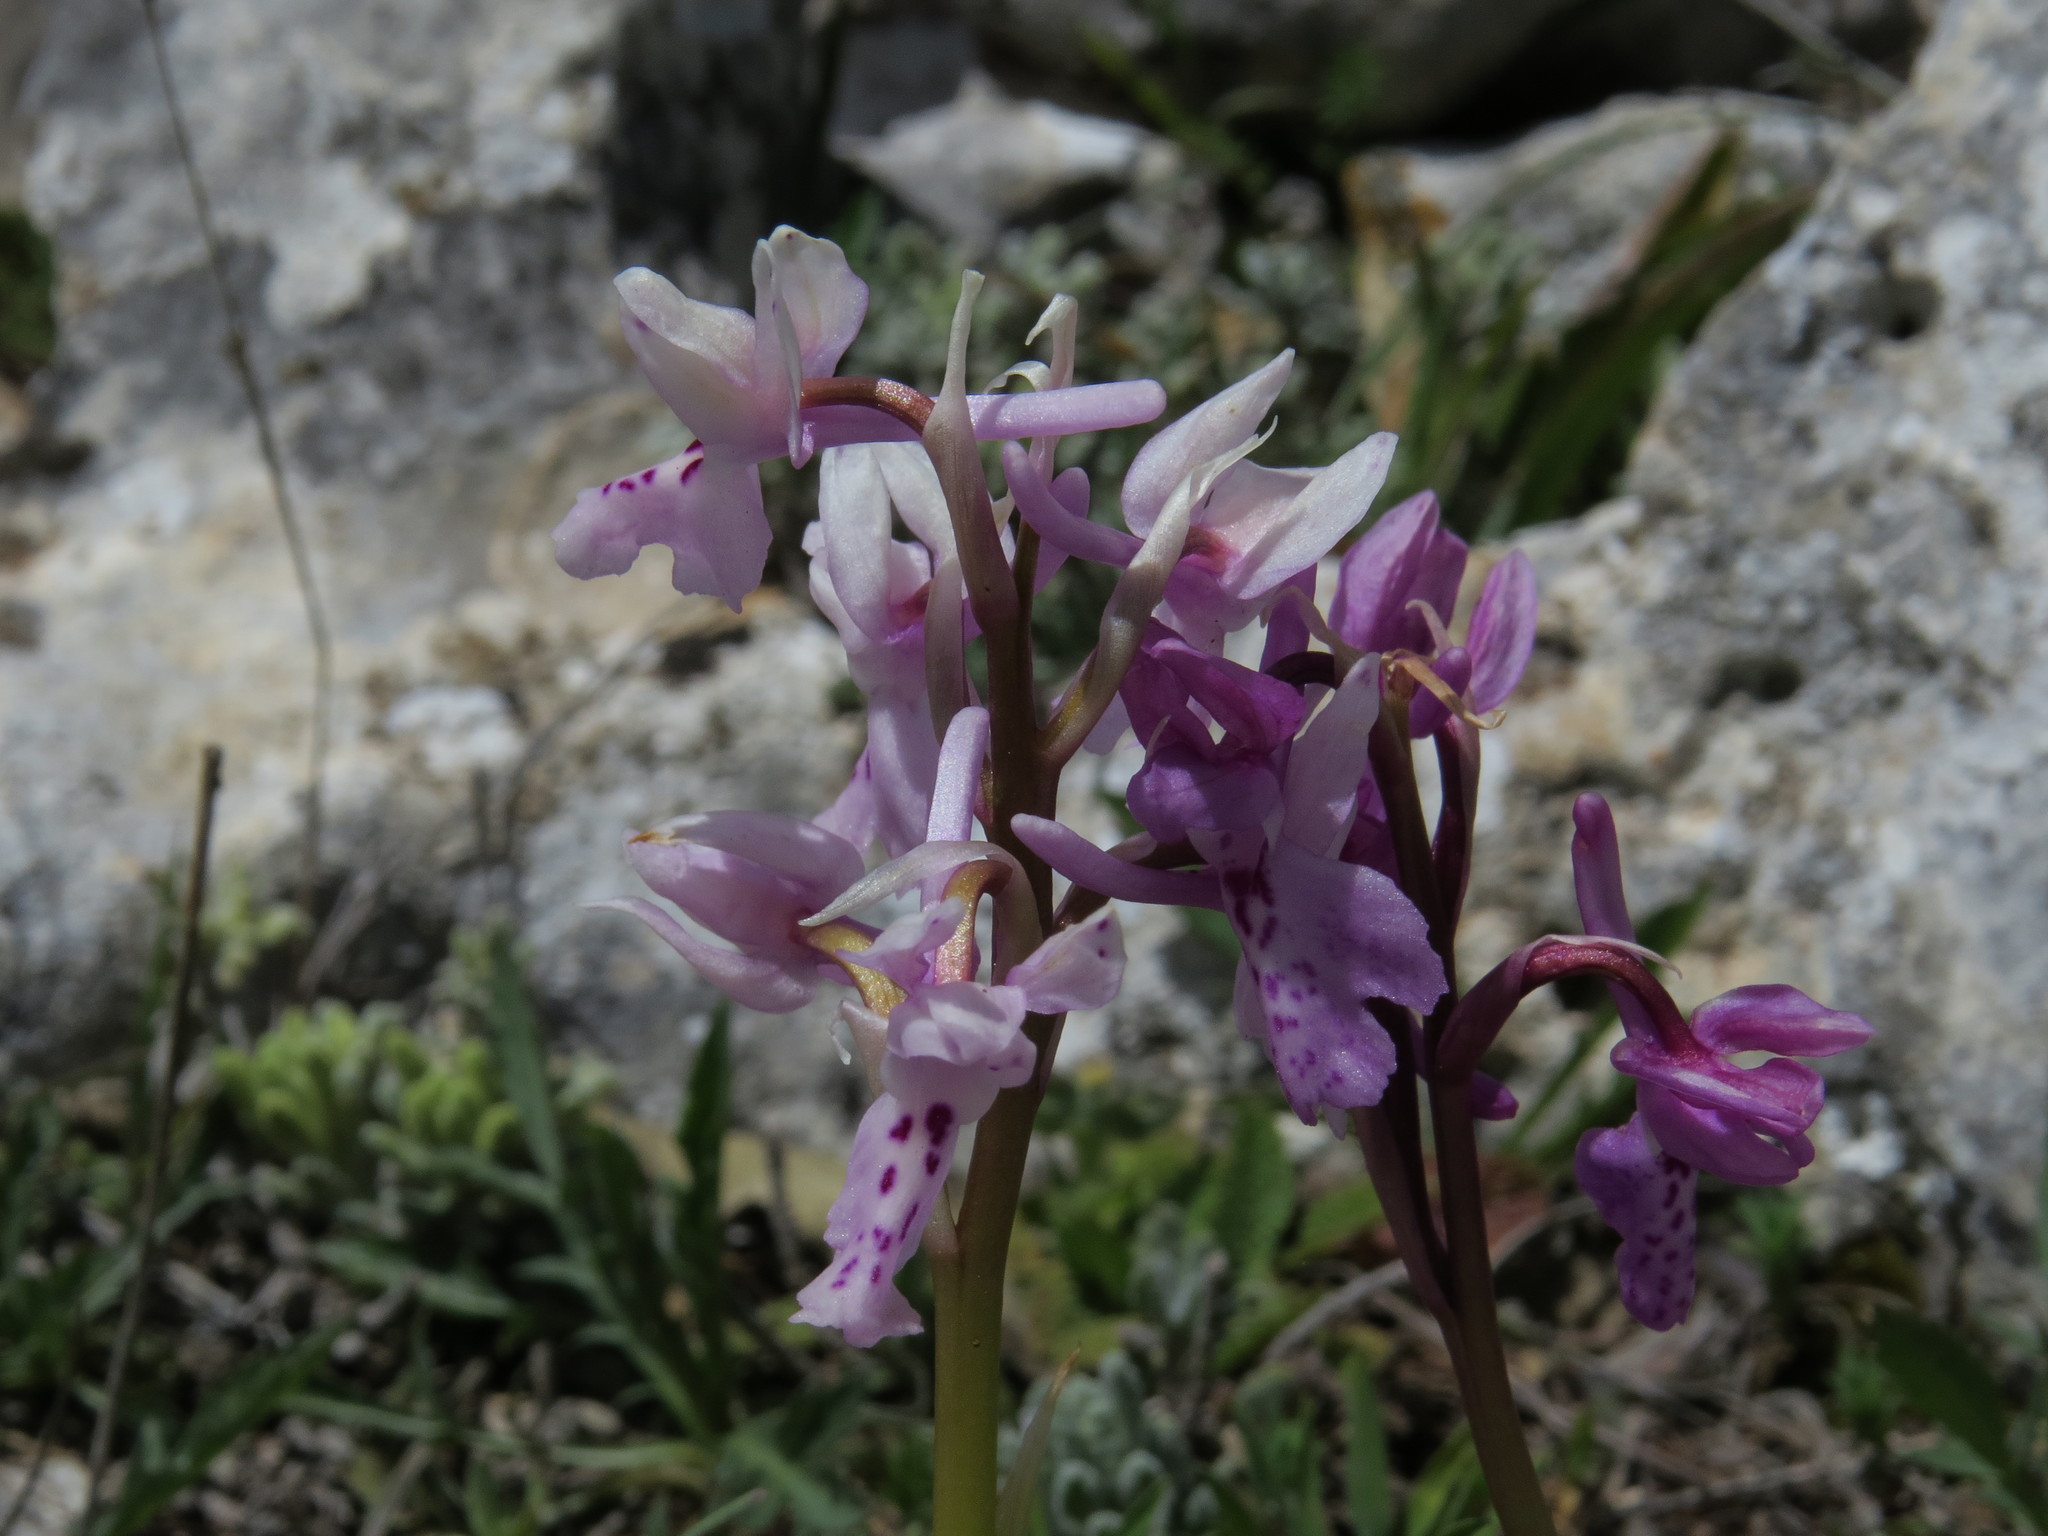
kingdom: Plantae
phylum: Tracheophyta
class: Liliopsida
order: Asparagales
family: Orchidaceae
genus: Orchis
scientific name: Orchis olbiensis
